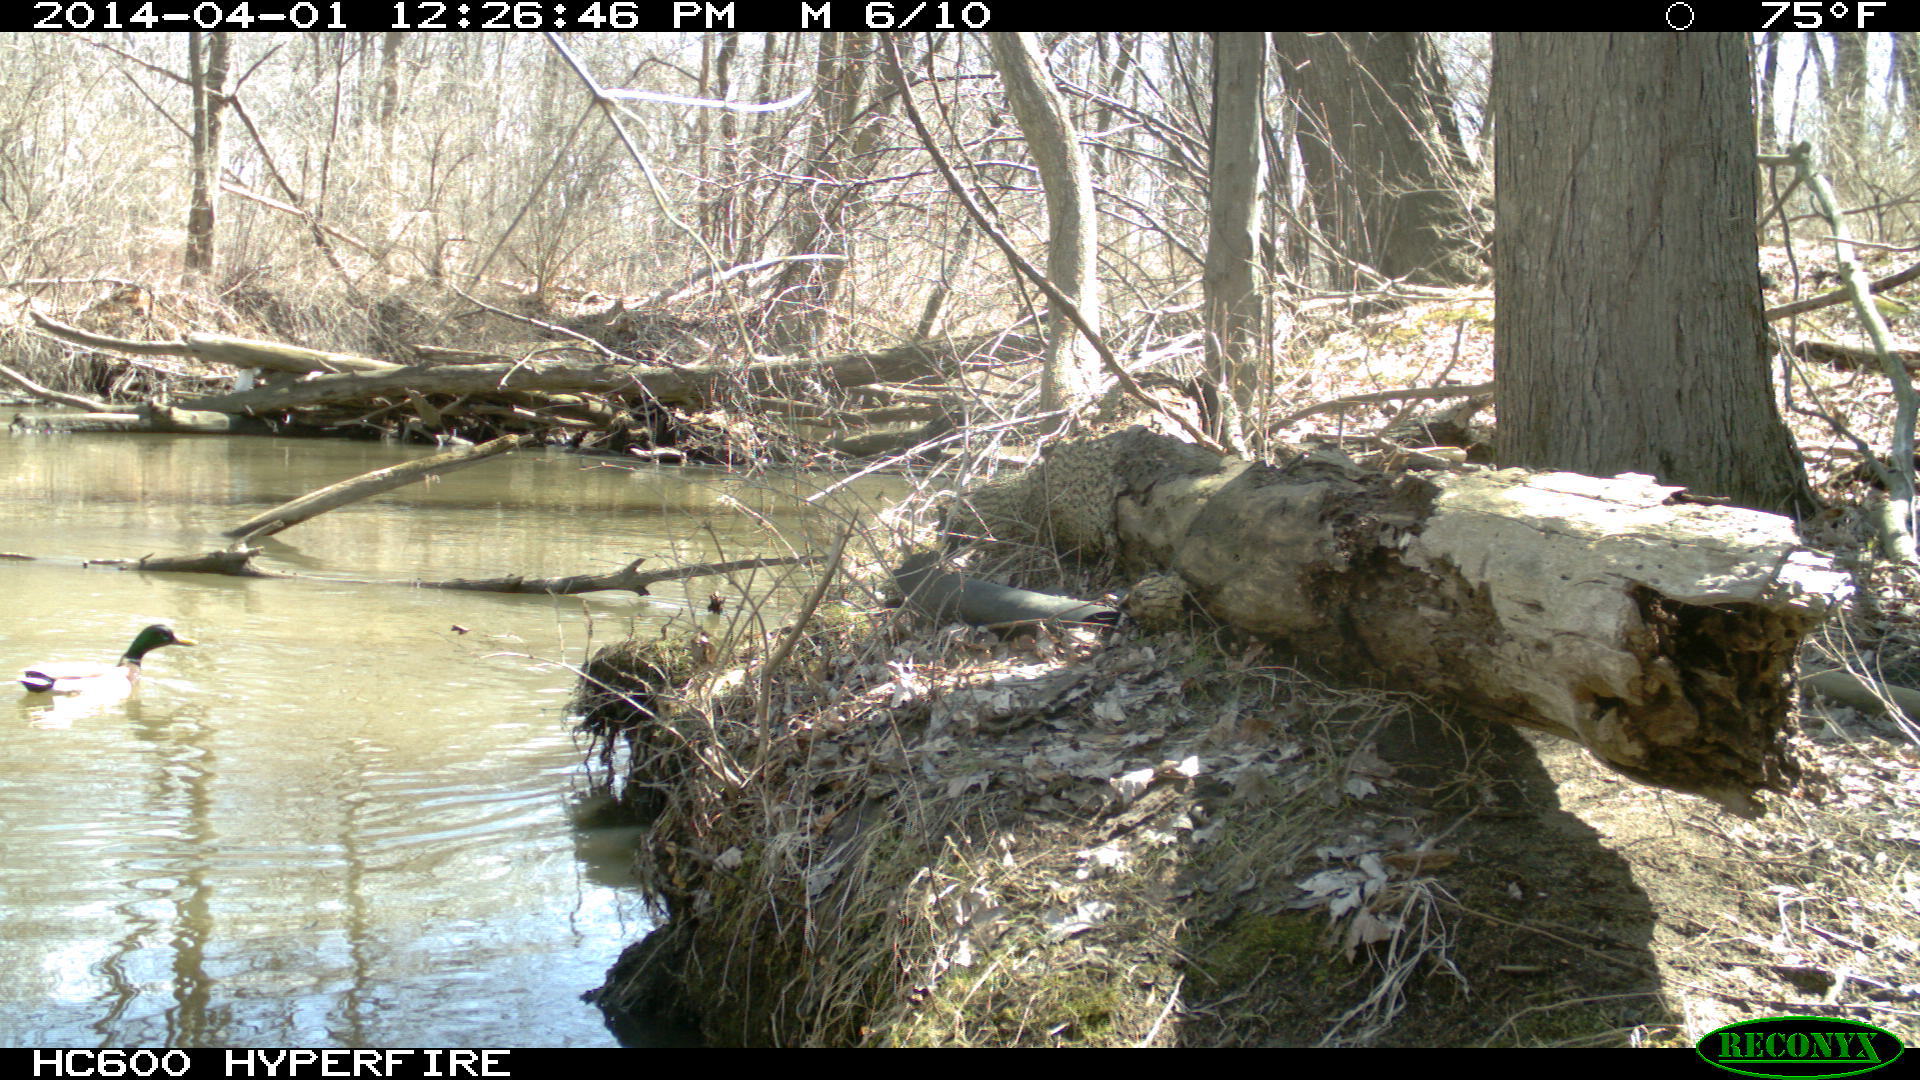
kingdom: Animalia
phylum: Chordata
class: Aves
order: Anseriformes
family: Anatidae
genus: Anas
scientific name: Anas platyrhynchos
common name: Mallard
